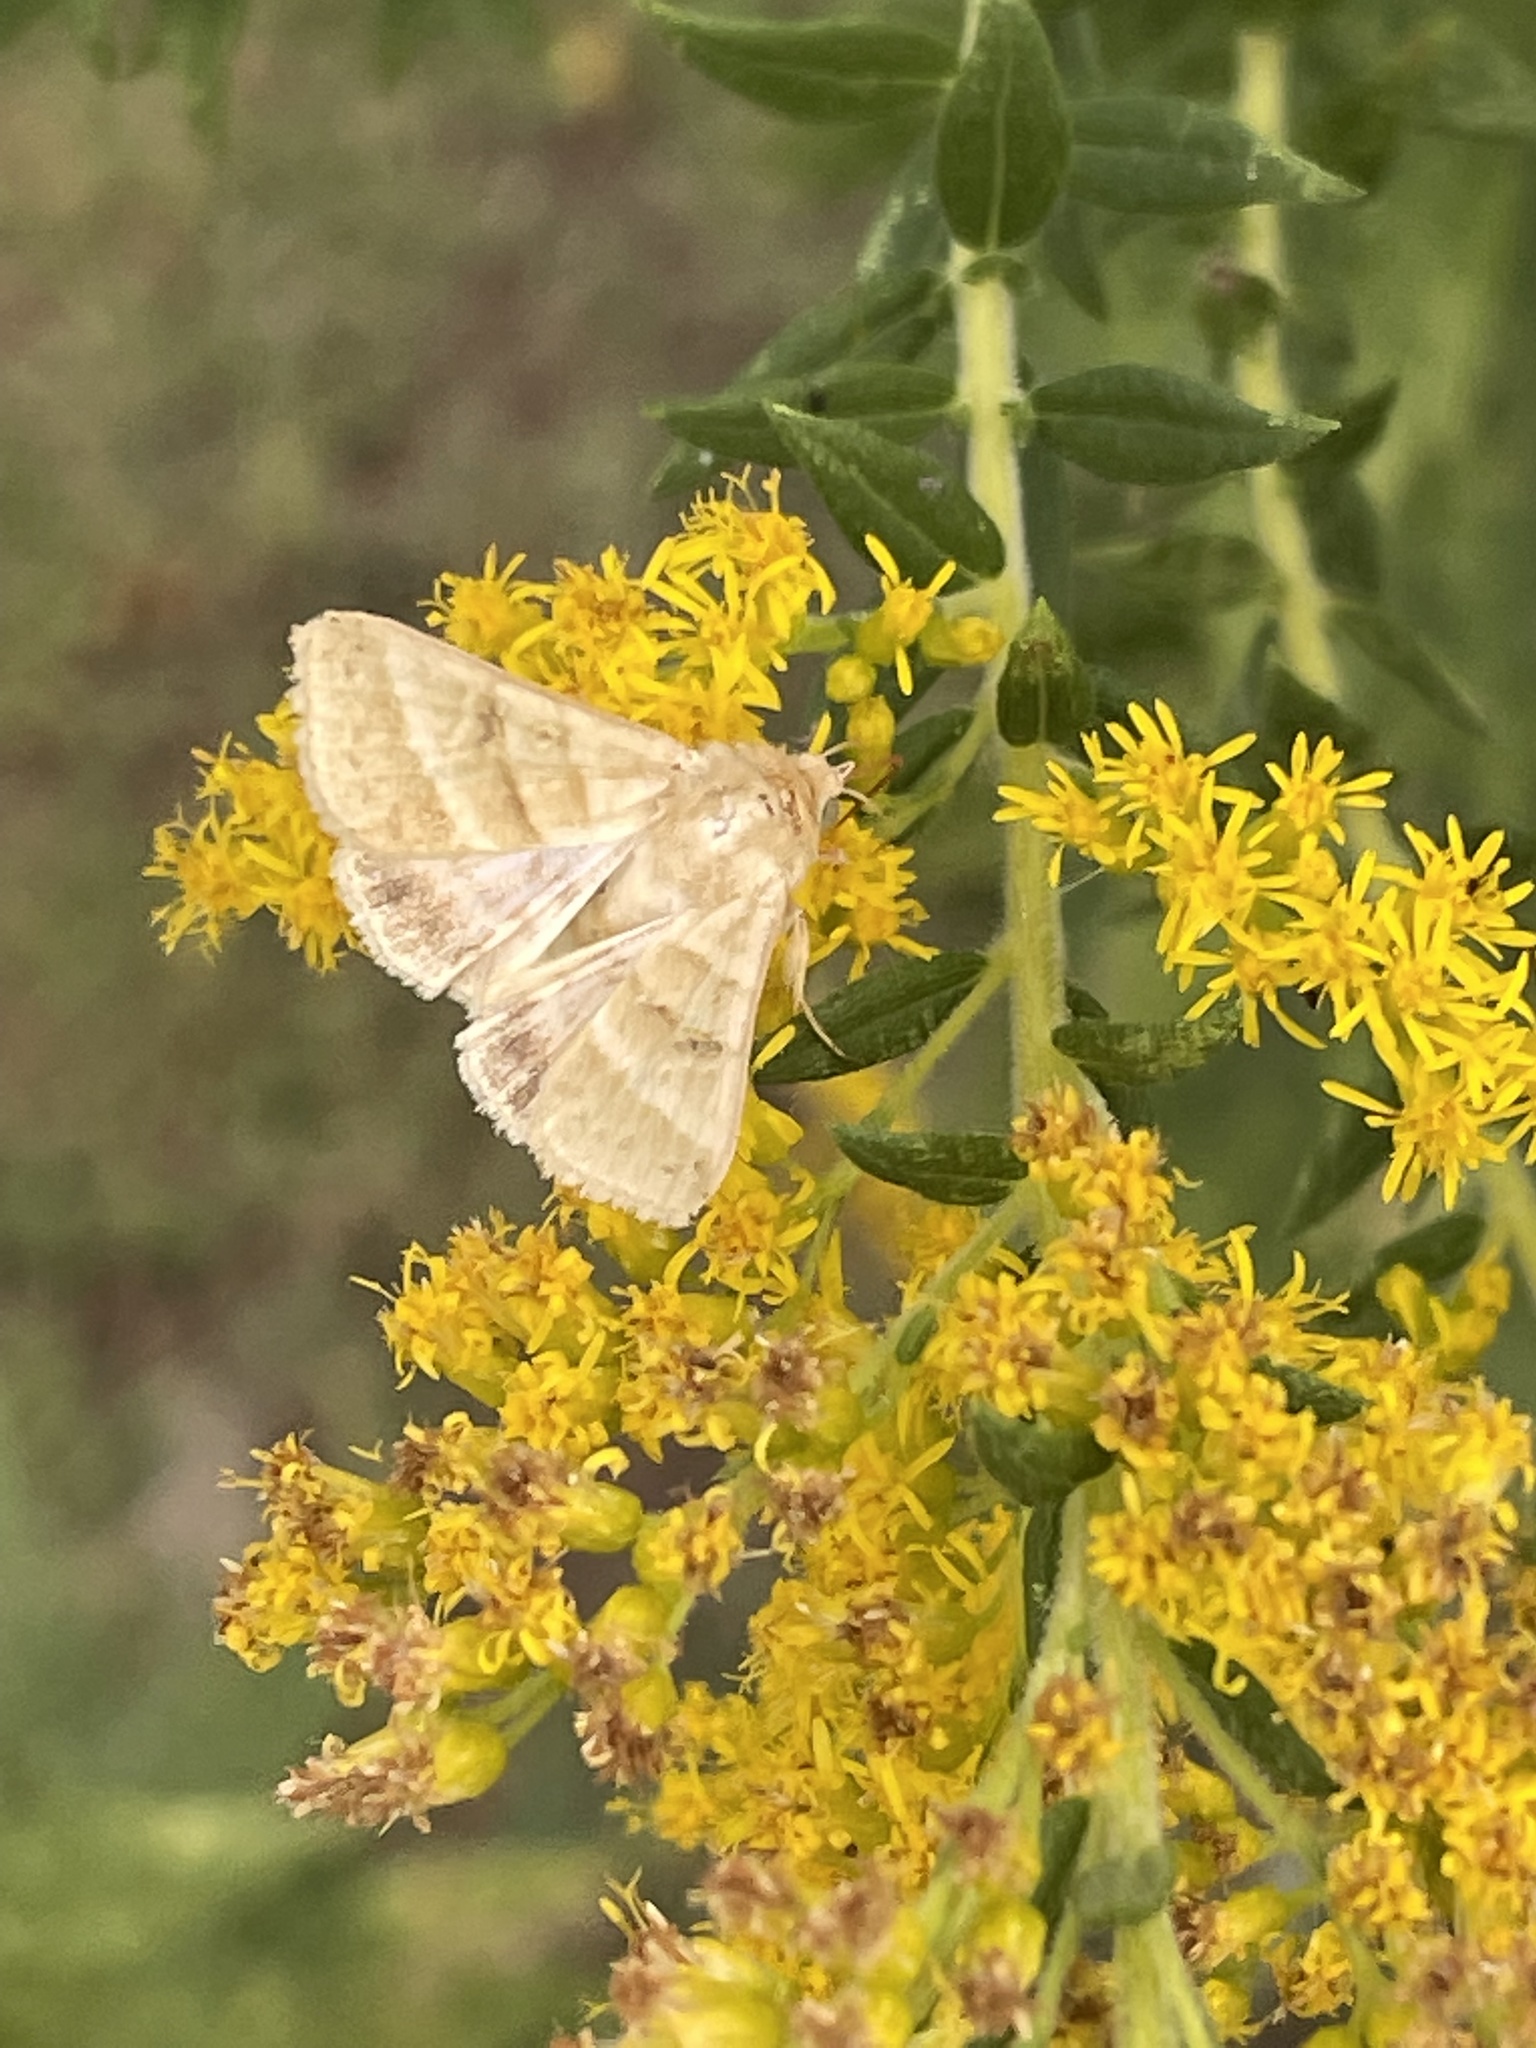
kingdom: Animalia
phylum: Arthropoda
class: Insecta
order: Lepidoptera
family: Noctuidae
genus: Chloridea
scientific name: Chloridea virescens
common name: Tobacco budworm
